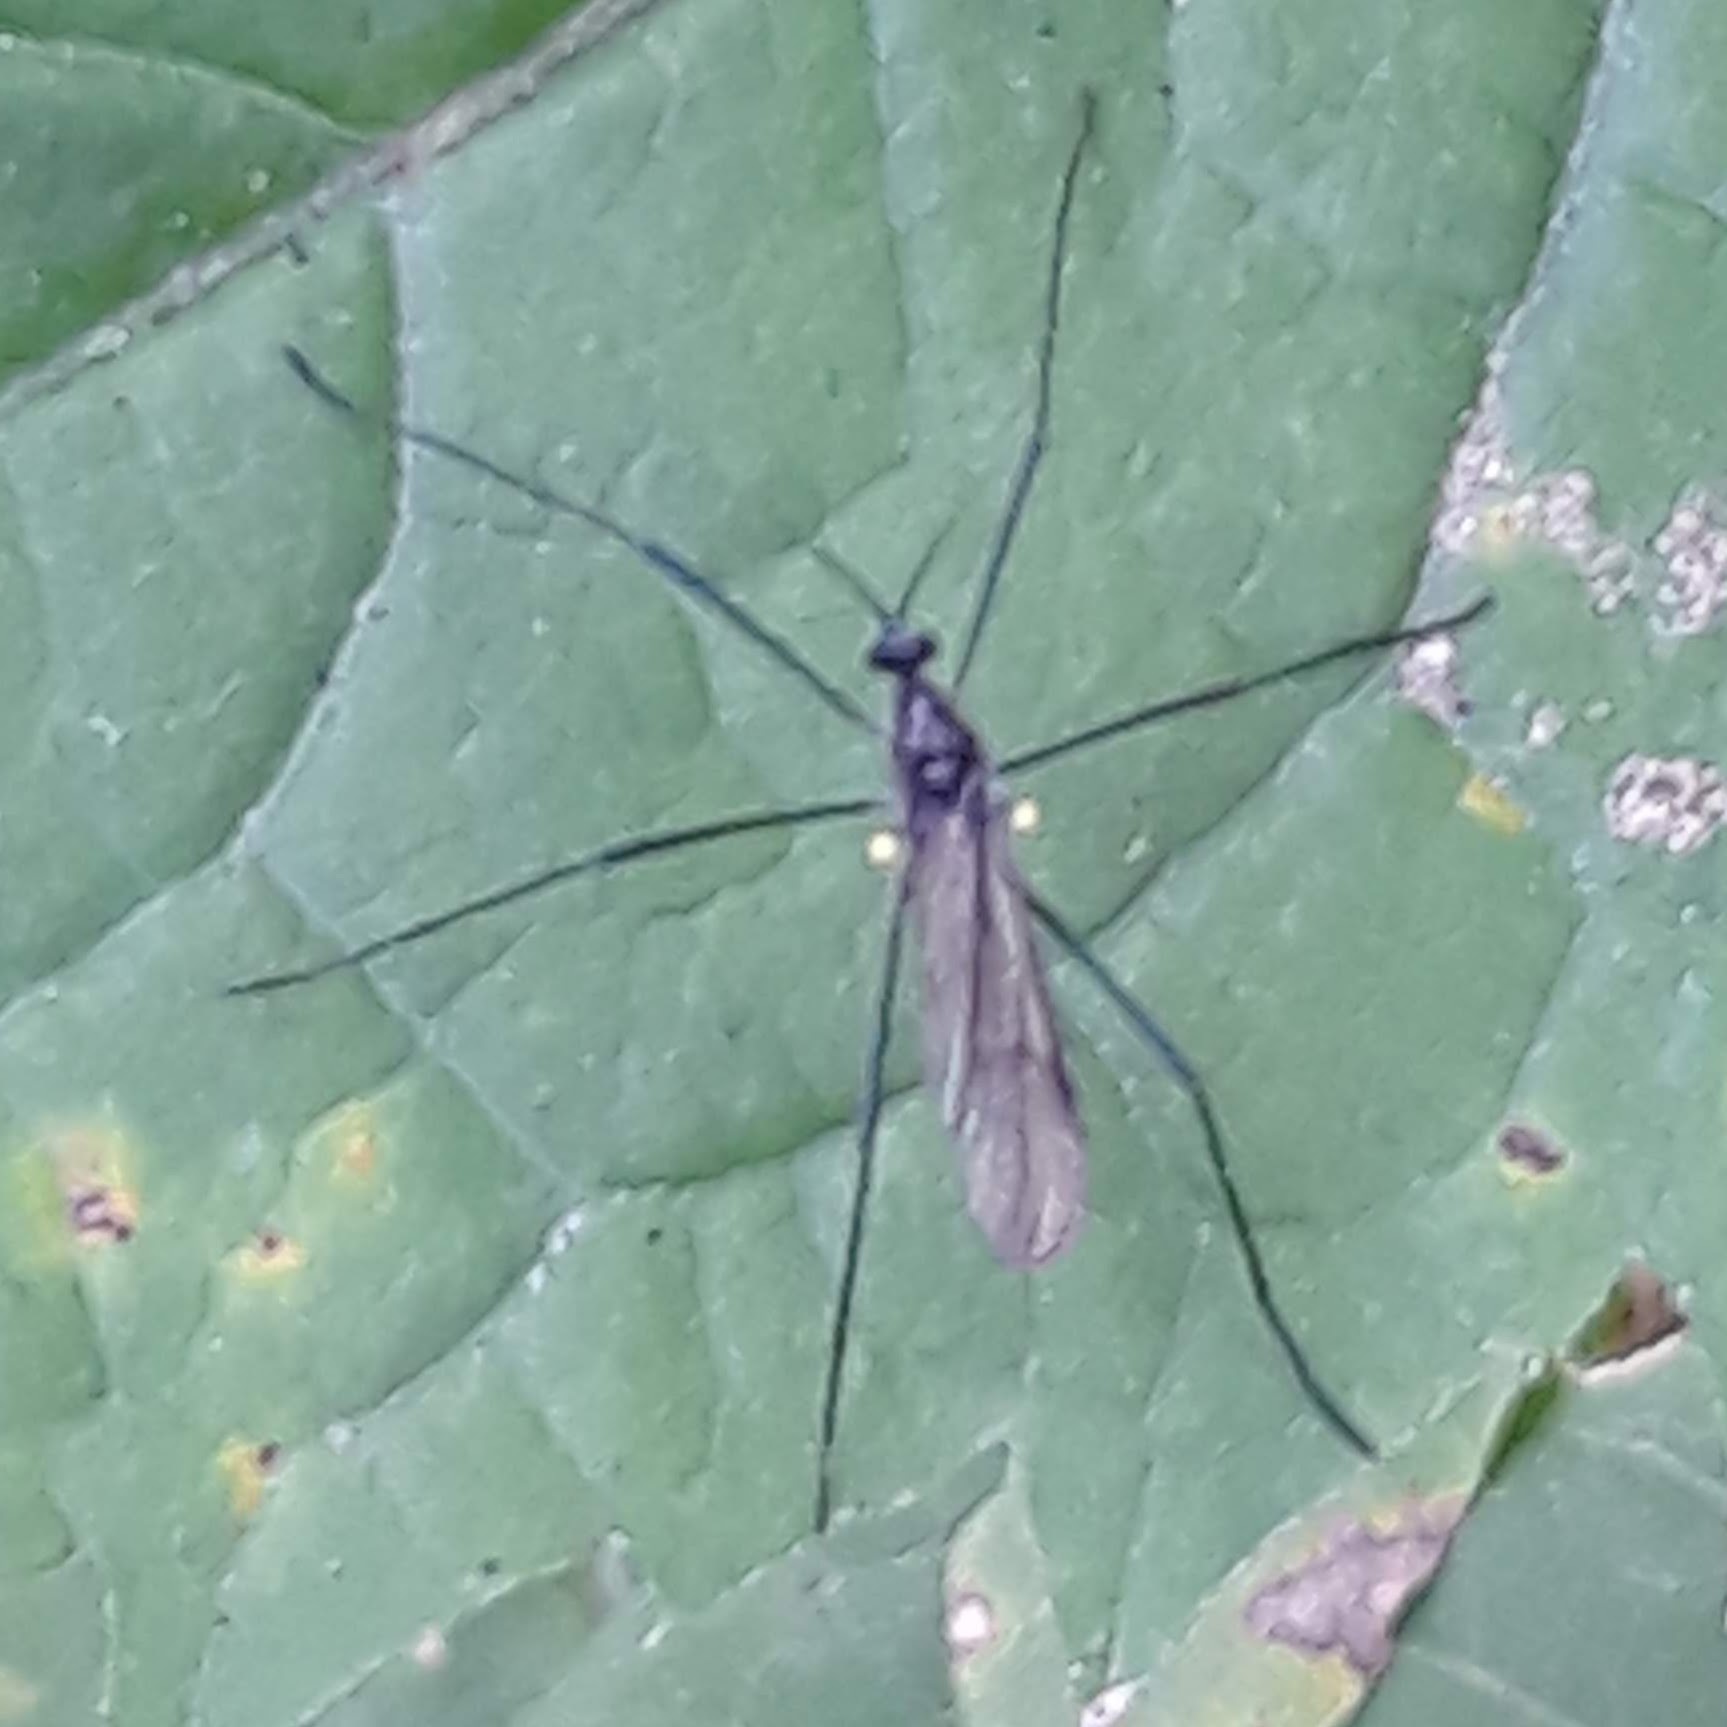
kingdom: Animalia
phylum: Arthropoda
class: Insecta
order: Diptera
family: Limoniidae
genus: Gnophomyia
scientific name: Gnophomyia tristissima
